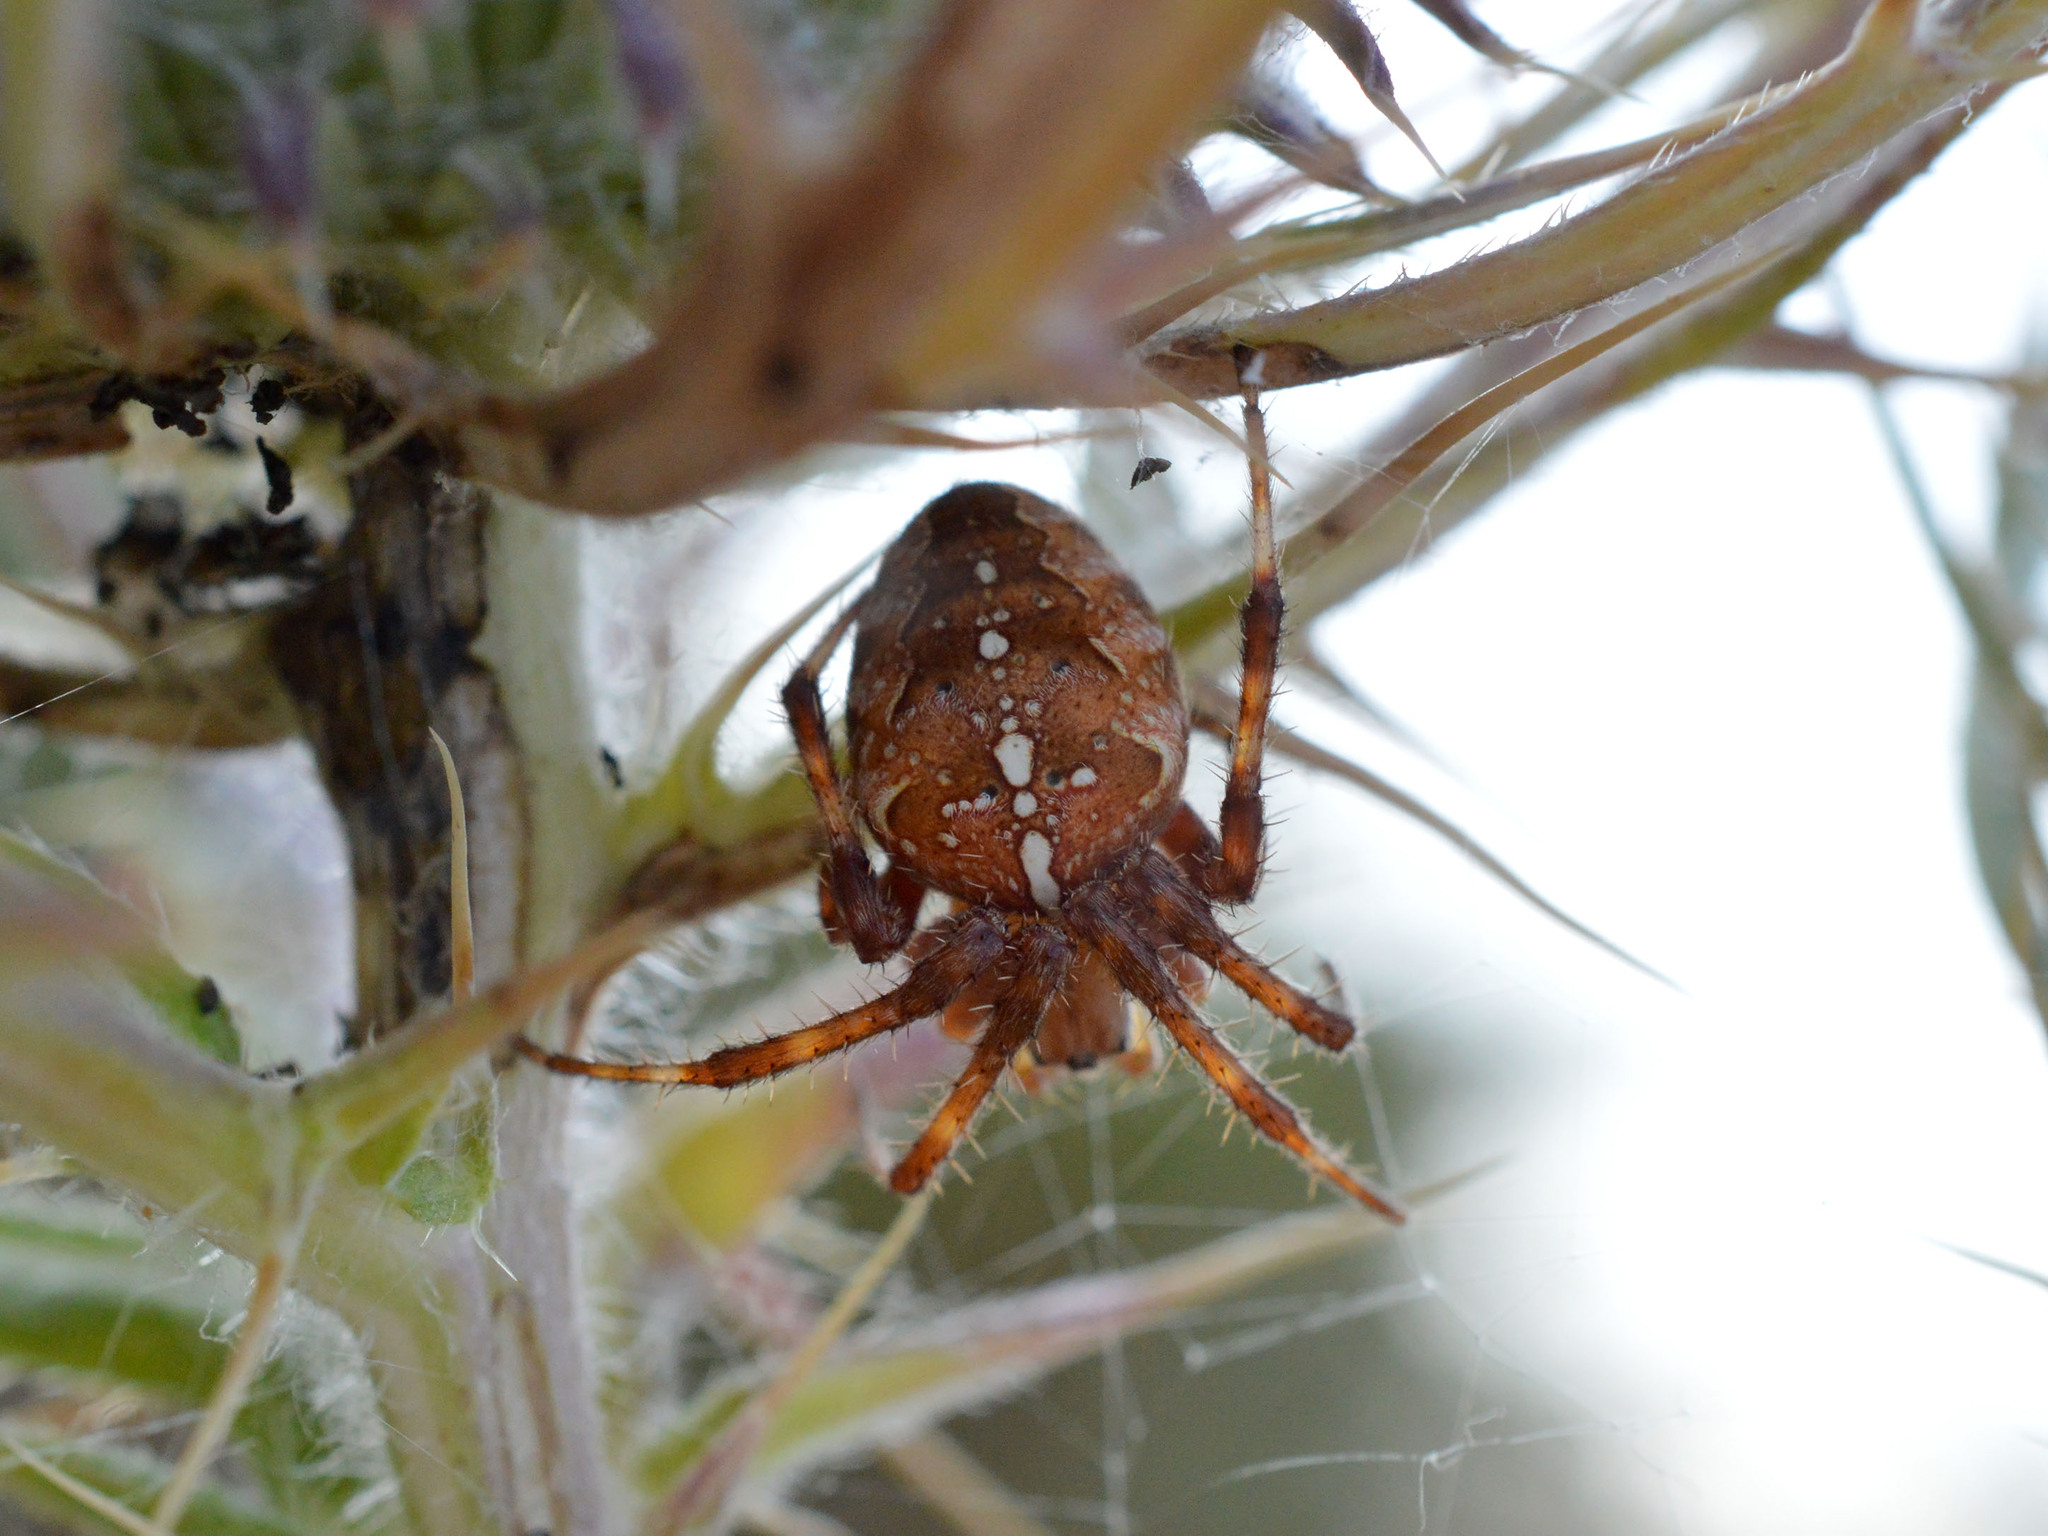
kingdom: Animalia
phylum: Arthropoda
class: Arachnida
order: Araneae
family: Araneidae
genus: Araneus
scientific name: Araneus diadematus
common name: Cross orbweaver
